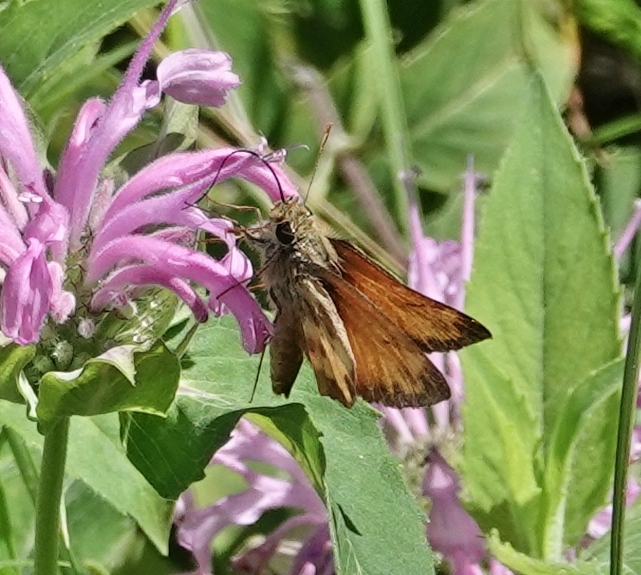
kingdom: Animalia
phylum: Arthropoda
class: Insecta
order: Lepidoptera
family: Hesperiidae
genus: Lon
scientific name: Lon taxiles
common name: Taxiles skipper
